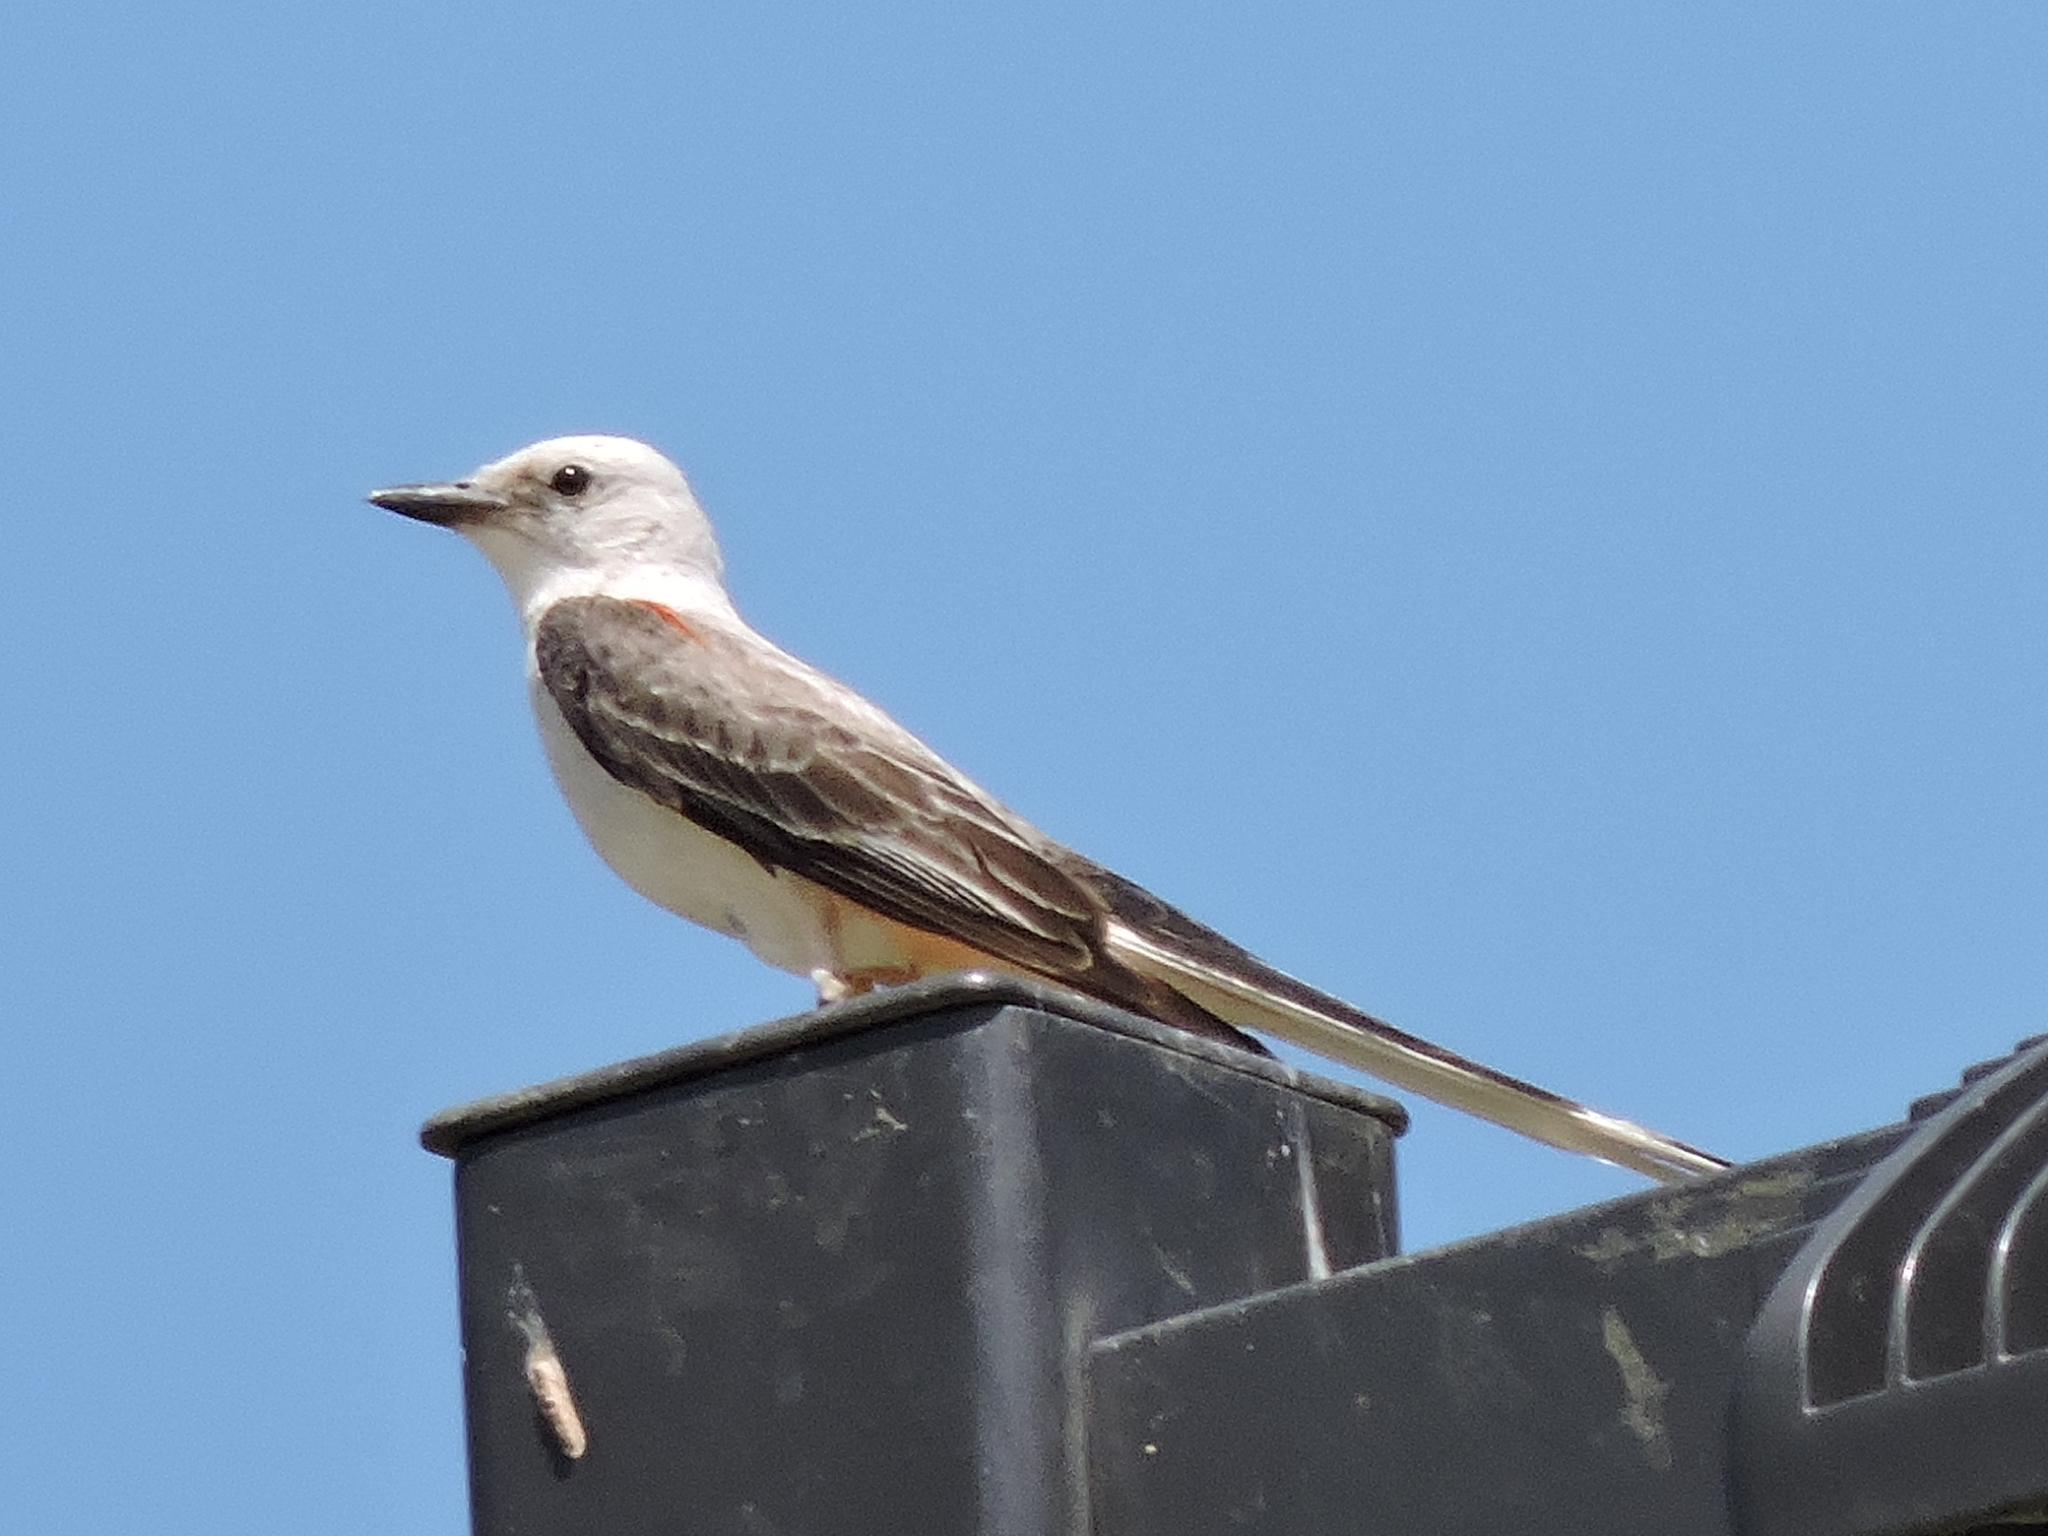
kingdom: Animalia
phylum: Chordata
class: Aves
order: Passeriformes
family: Tyrannidae
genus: Tyrannus
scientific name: Tyrannus forficatus
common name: Scissor-tailed flycatcher
